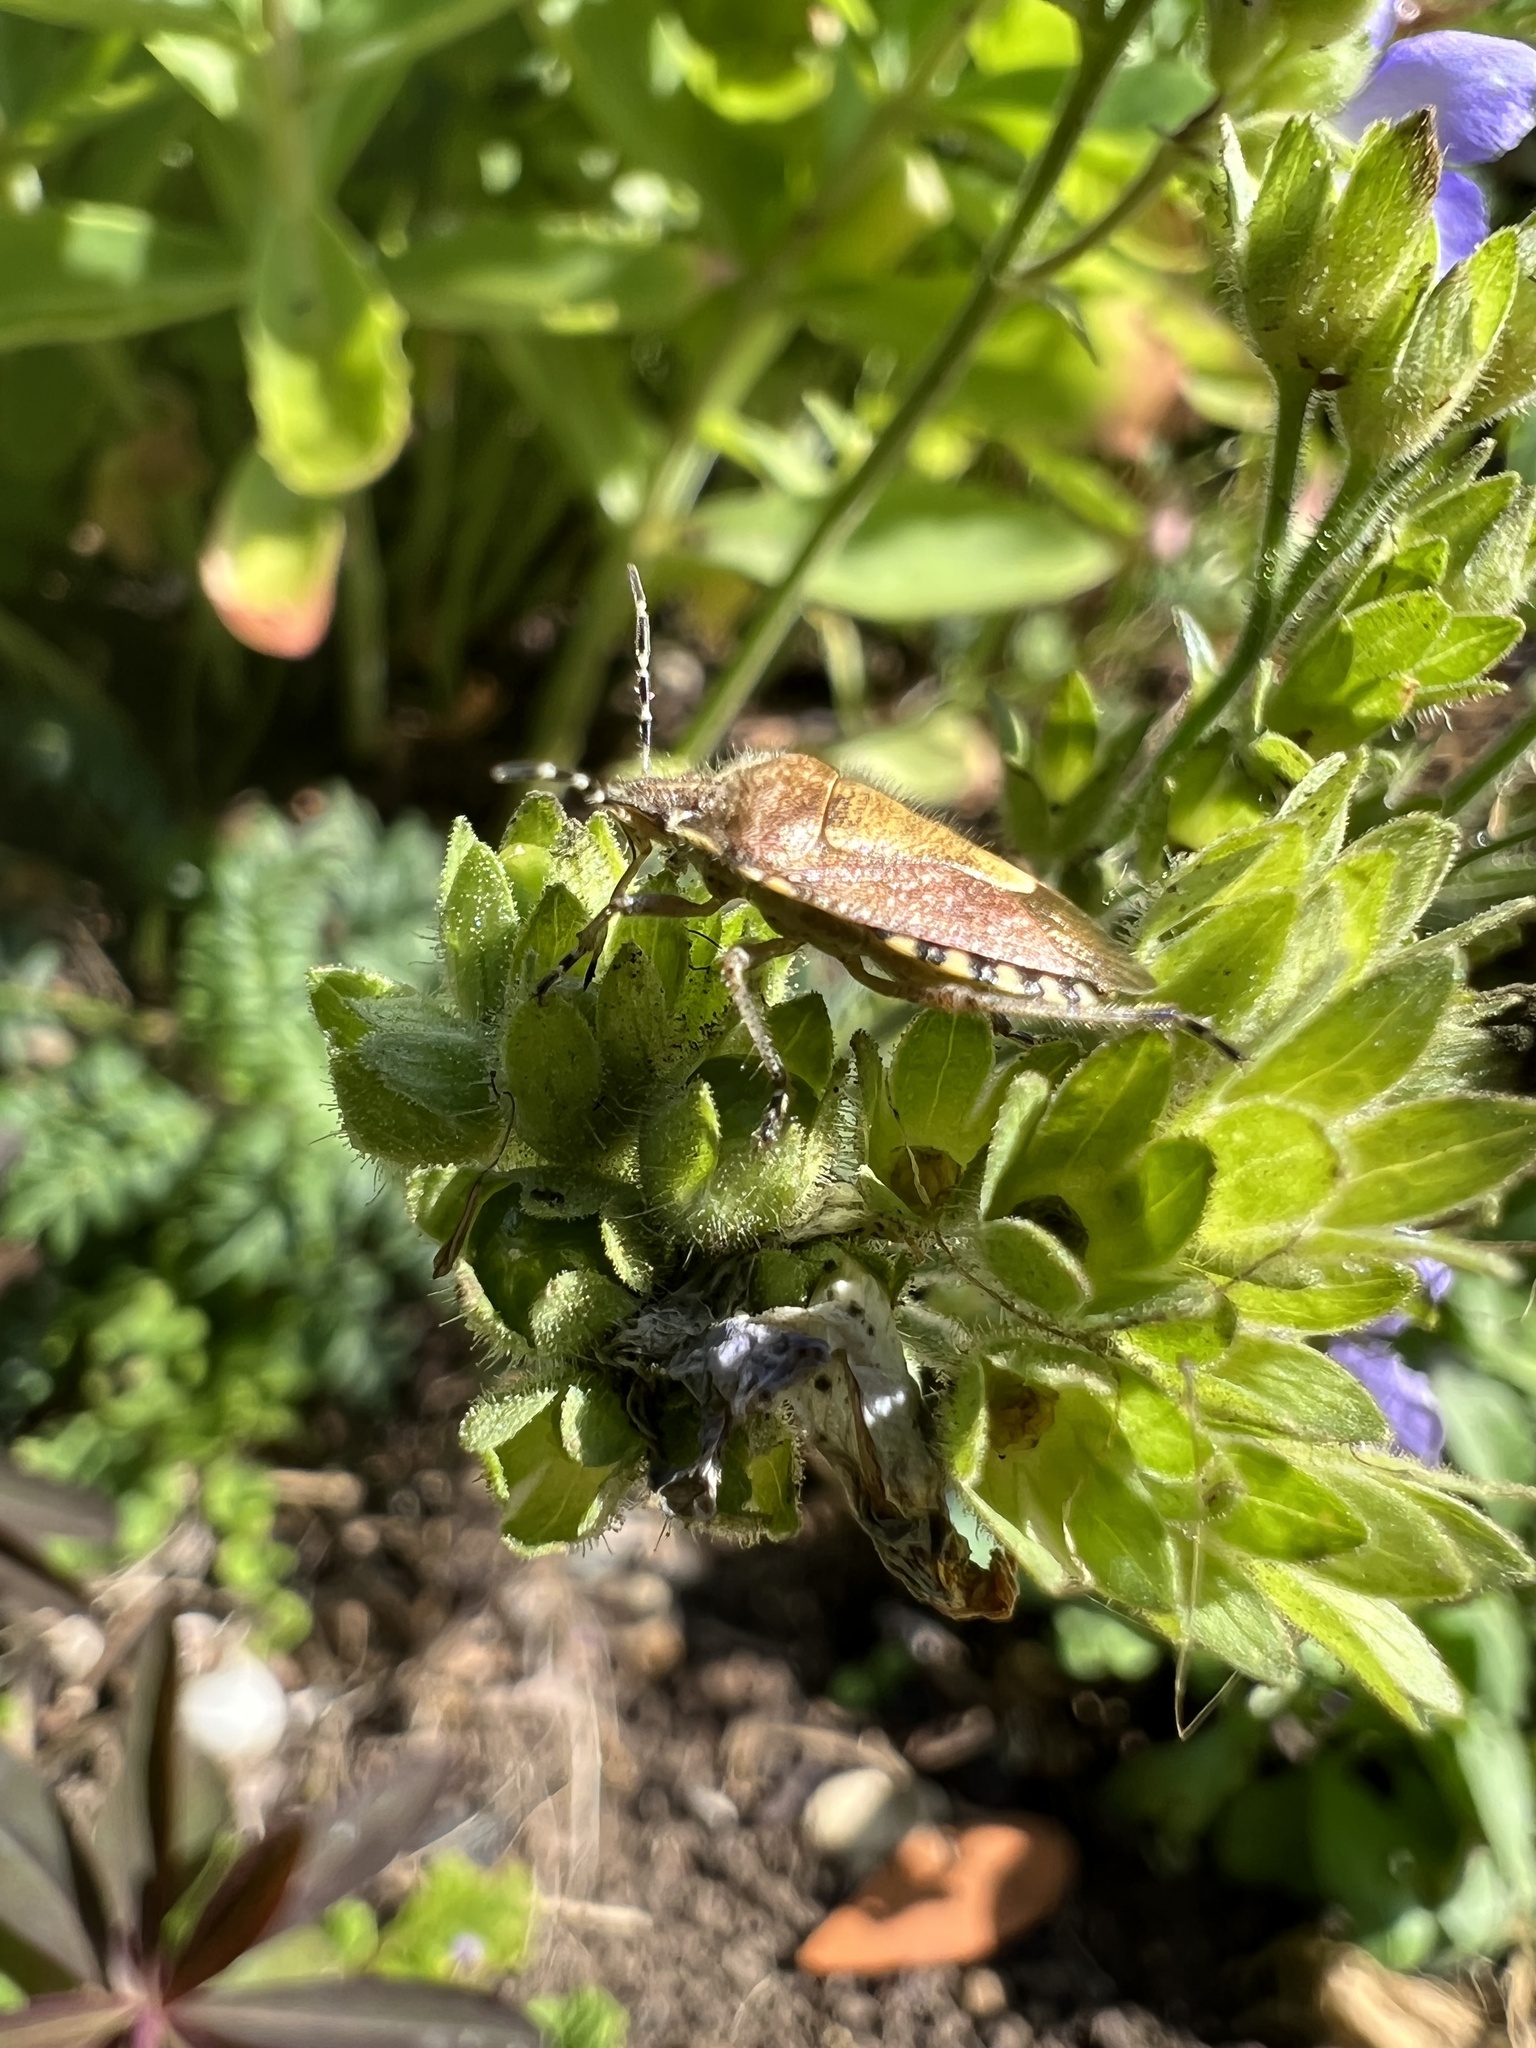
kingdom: Animalia
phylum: Arthropoda
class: Insecta
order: Hemiptera
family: Pentatomidae
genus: Dolycoris
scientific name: Dolycoris baccarum
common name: Sloe bug
